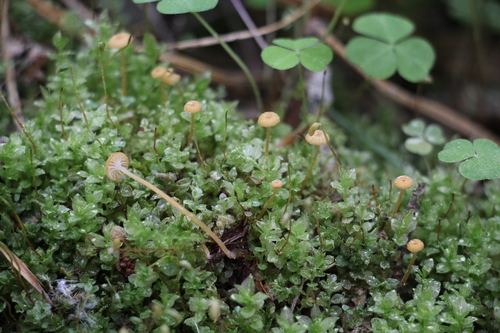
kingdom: Fungi
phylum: Basidiomycota
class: Agaricomycetes
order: Hymenochaetales
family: Rickenellaceae
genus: Rickenella
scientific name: Rickenella fibula
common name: Orange mosscap
